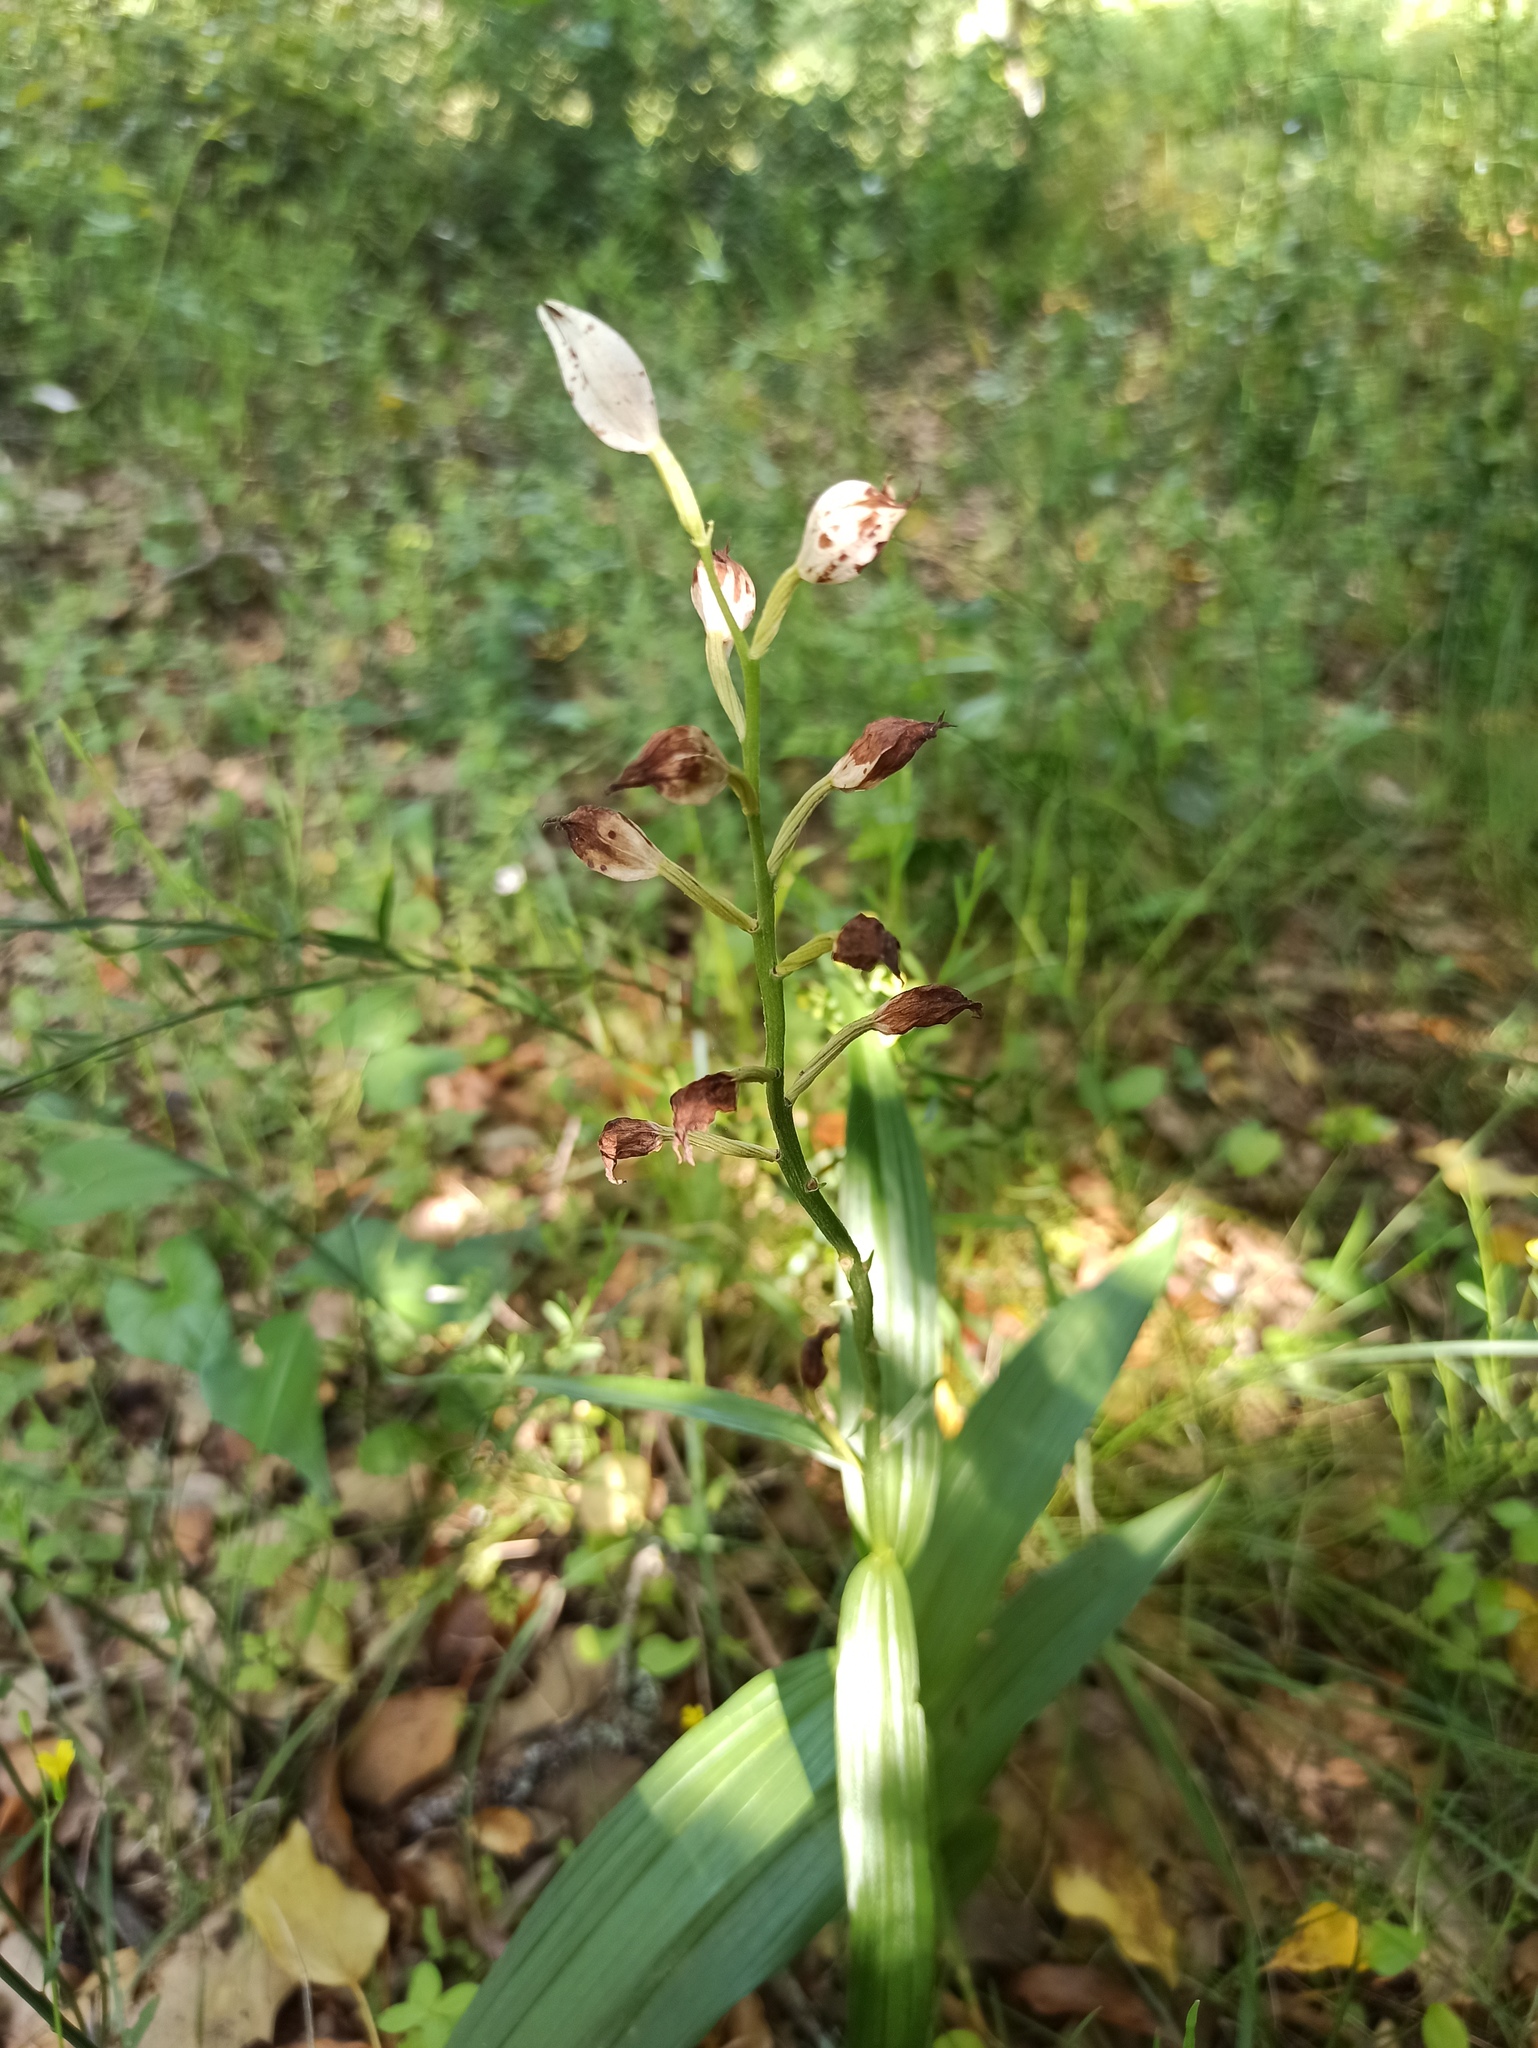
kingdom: Plantae
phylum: Tracheophyta
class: Liliopsida
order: Asparagales
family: Orchidaceae
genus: Cephalanthera
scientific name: Cephalanthera longifolia
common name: Narrow-leaved helleborine
